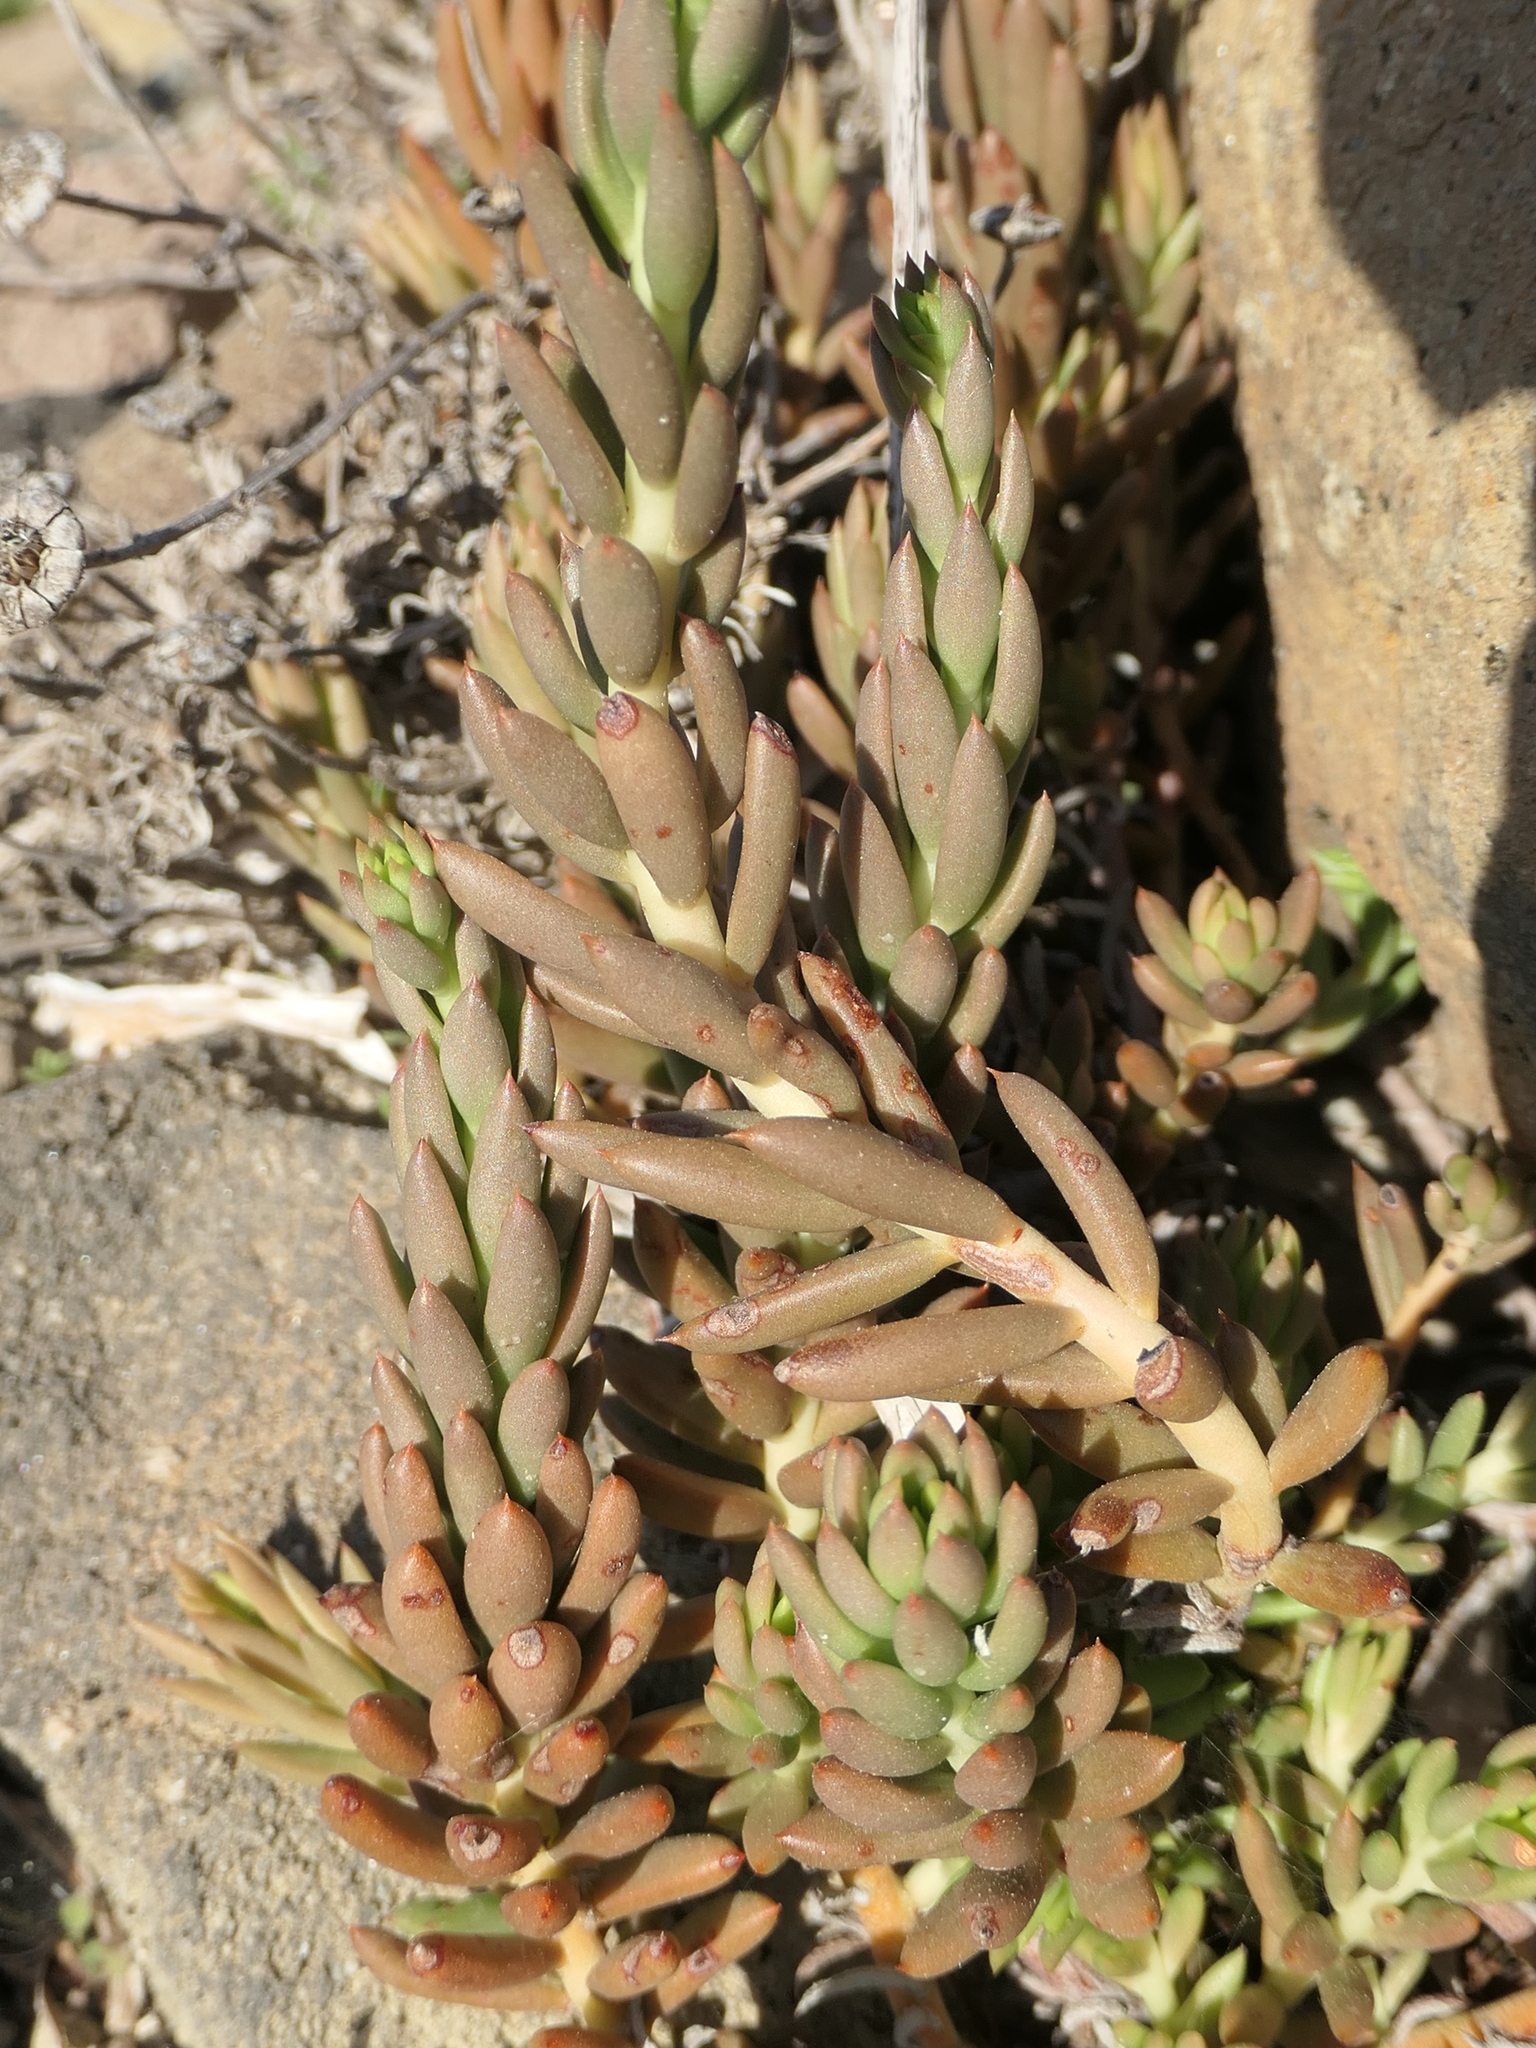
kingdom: Plantae
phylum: Tracheophyta
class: Magnoliopsida
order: Saxifragales
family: Crassulaceae
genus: Petrosedum
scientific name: Petrosedum sediforme
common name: Pale stonecrop
